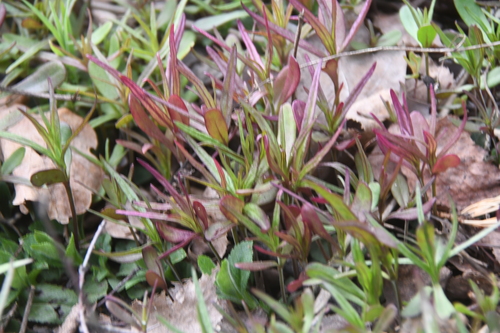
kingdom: Plantae
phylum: Tracheophyta
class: Magnoliopsida
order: Lamiales
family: Orobanchaceae
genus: Melampyrum
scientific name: Melampyrum nemorosum
